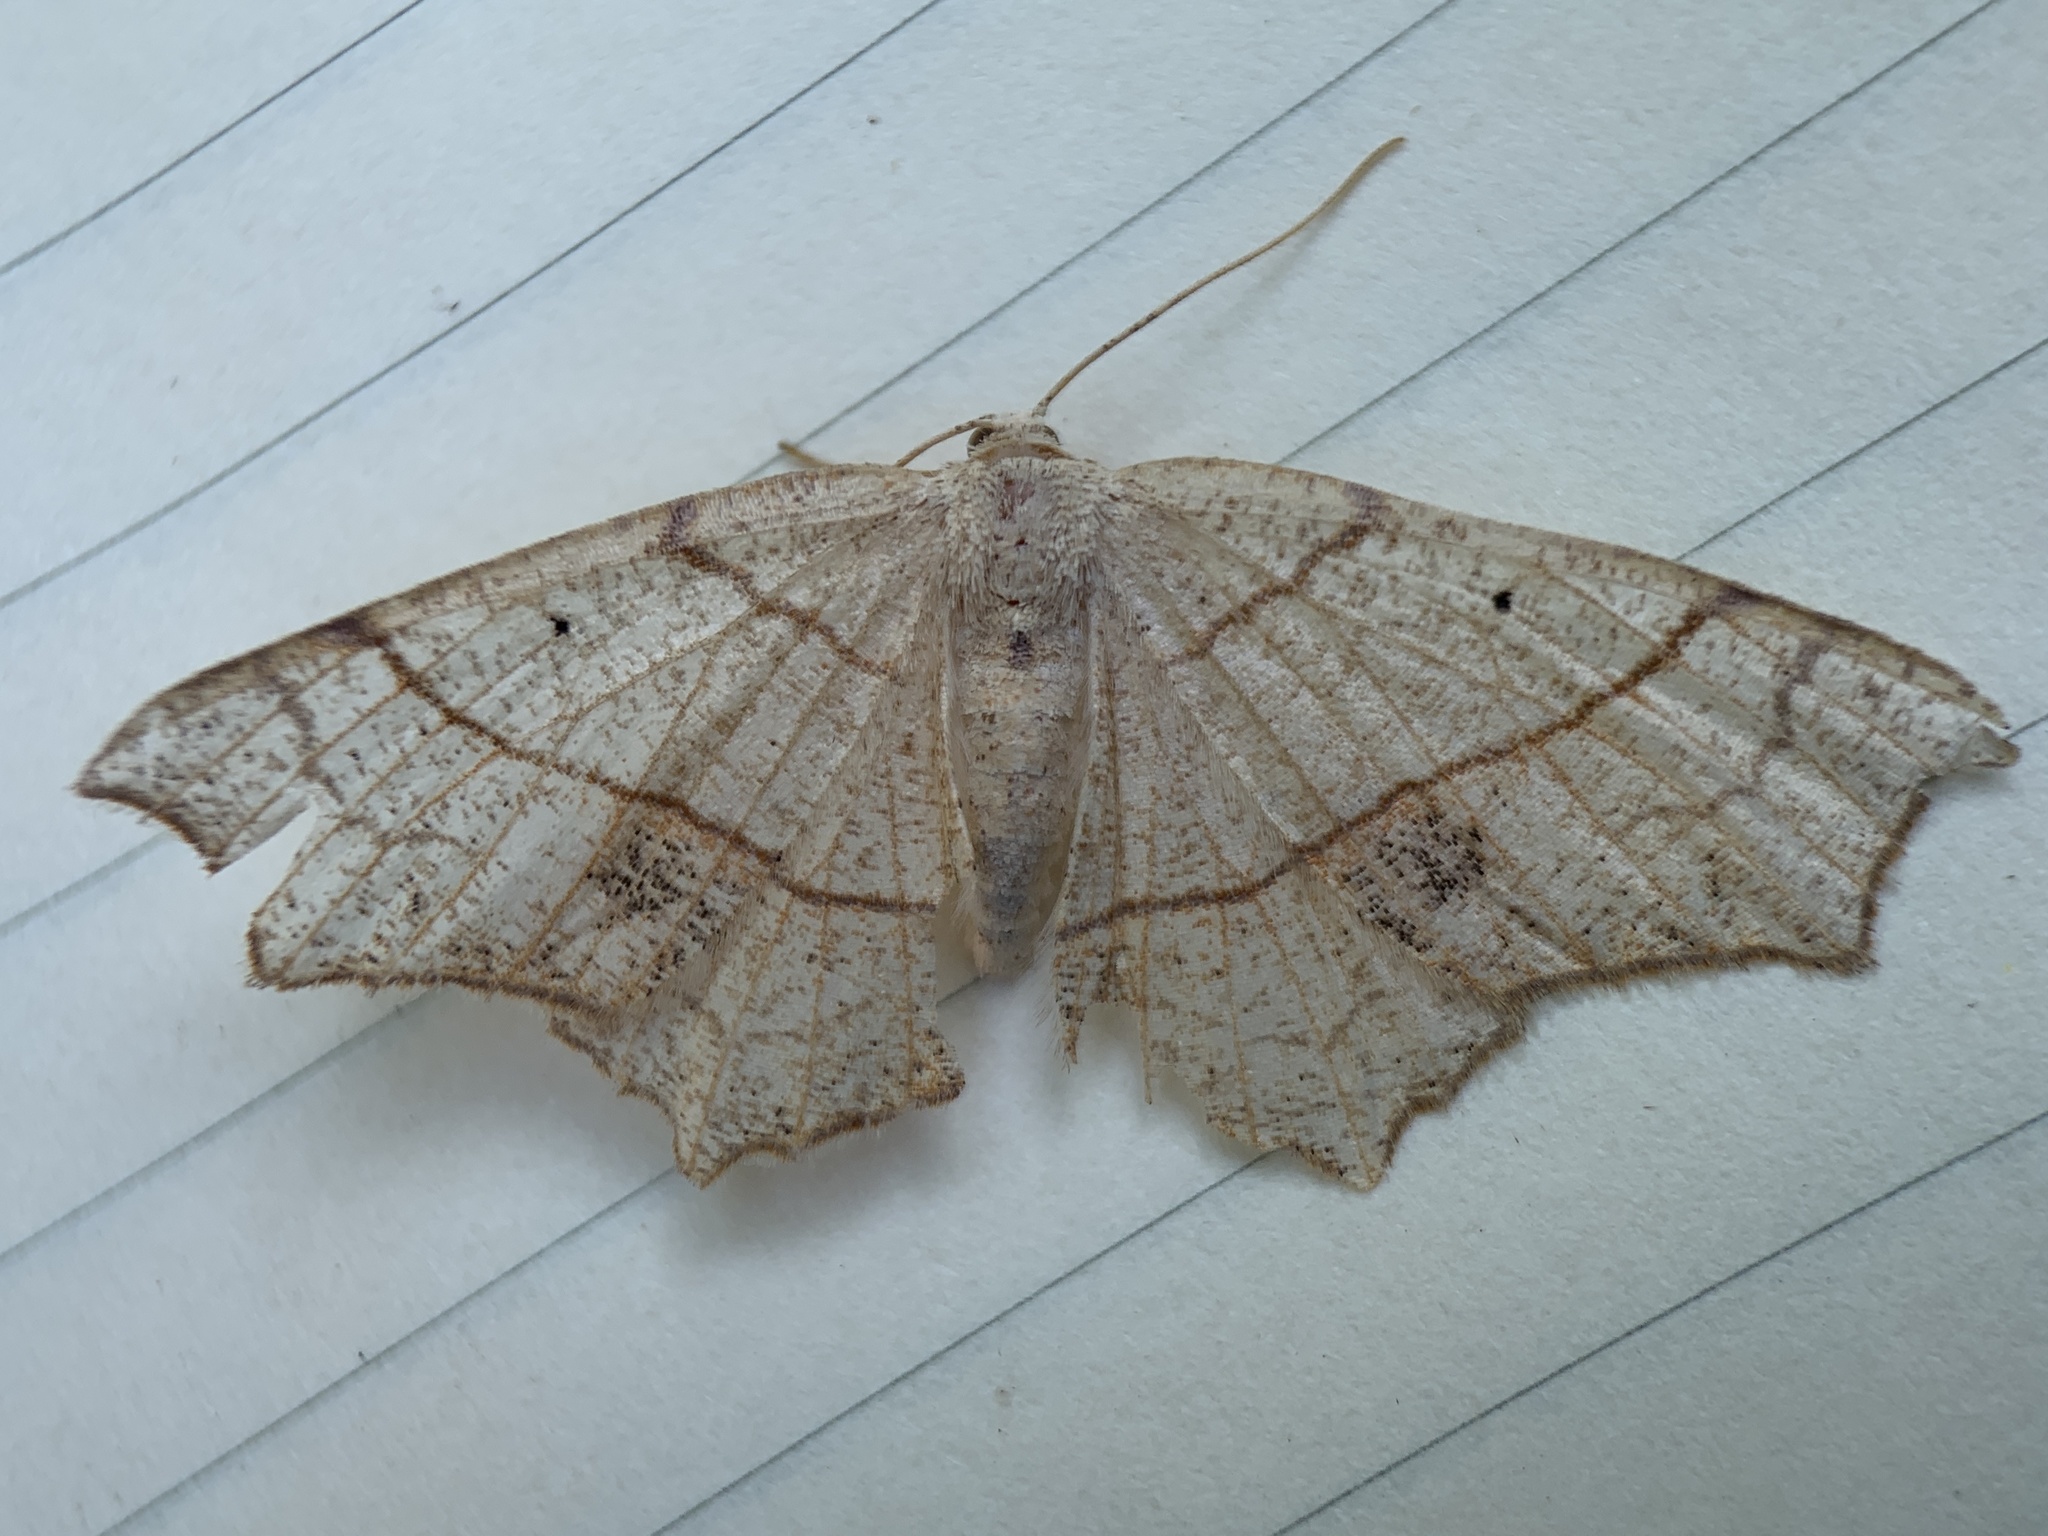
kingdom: Animalia
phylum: Arthropoda
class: Insecta
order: Lepidoptera
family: Geometridae
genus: Besma
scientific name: Besma quercivoraria
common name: Oak besma
